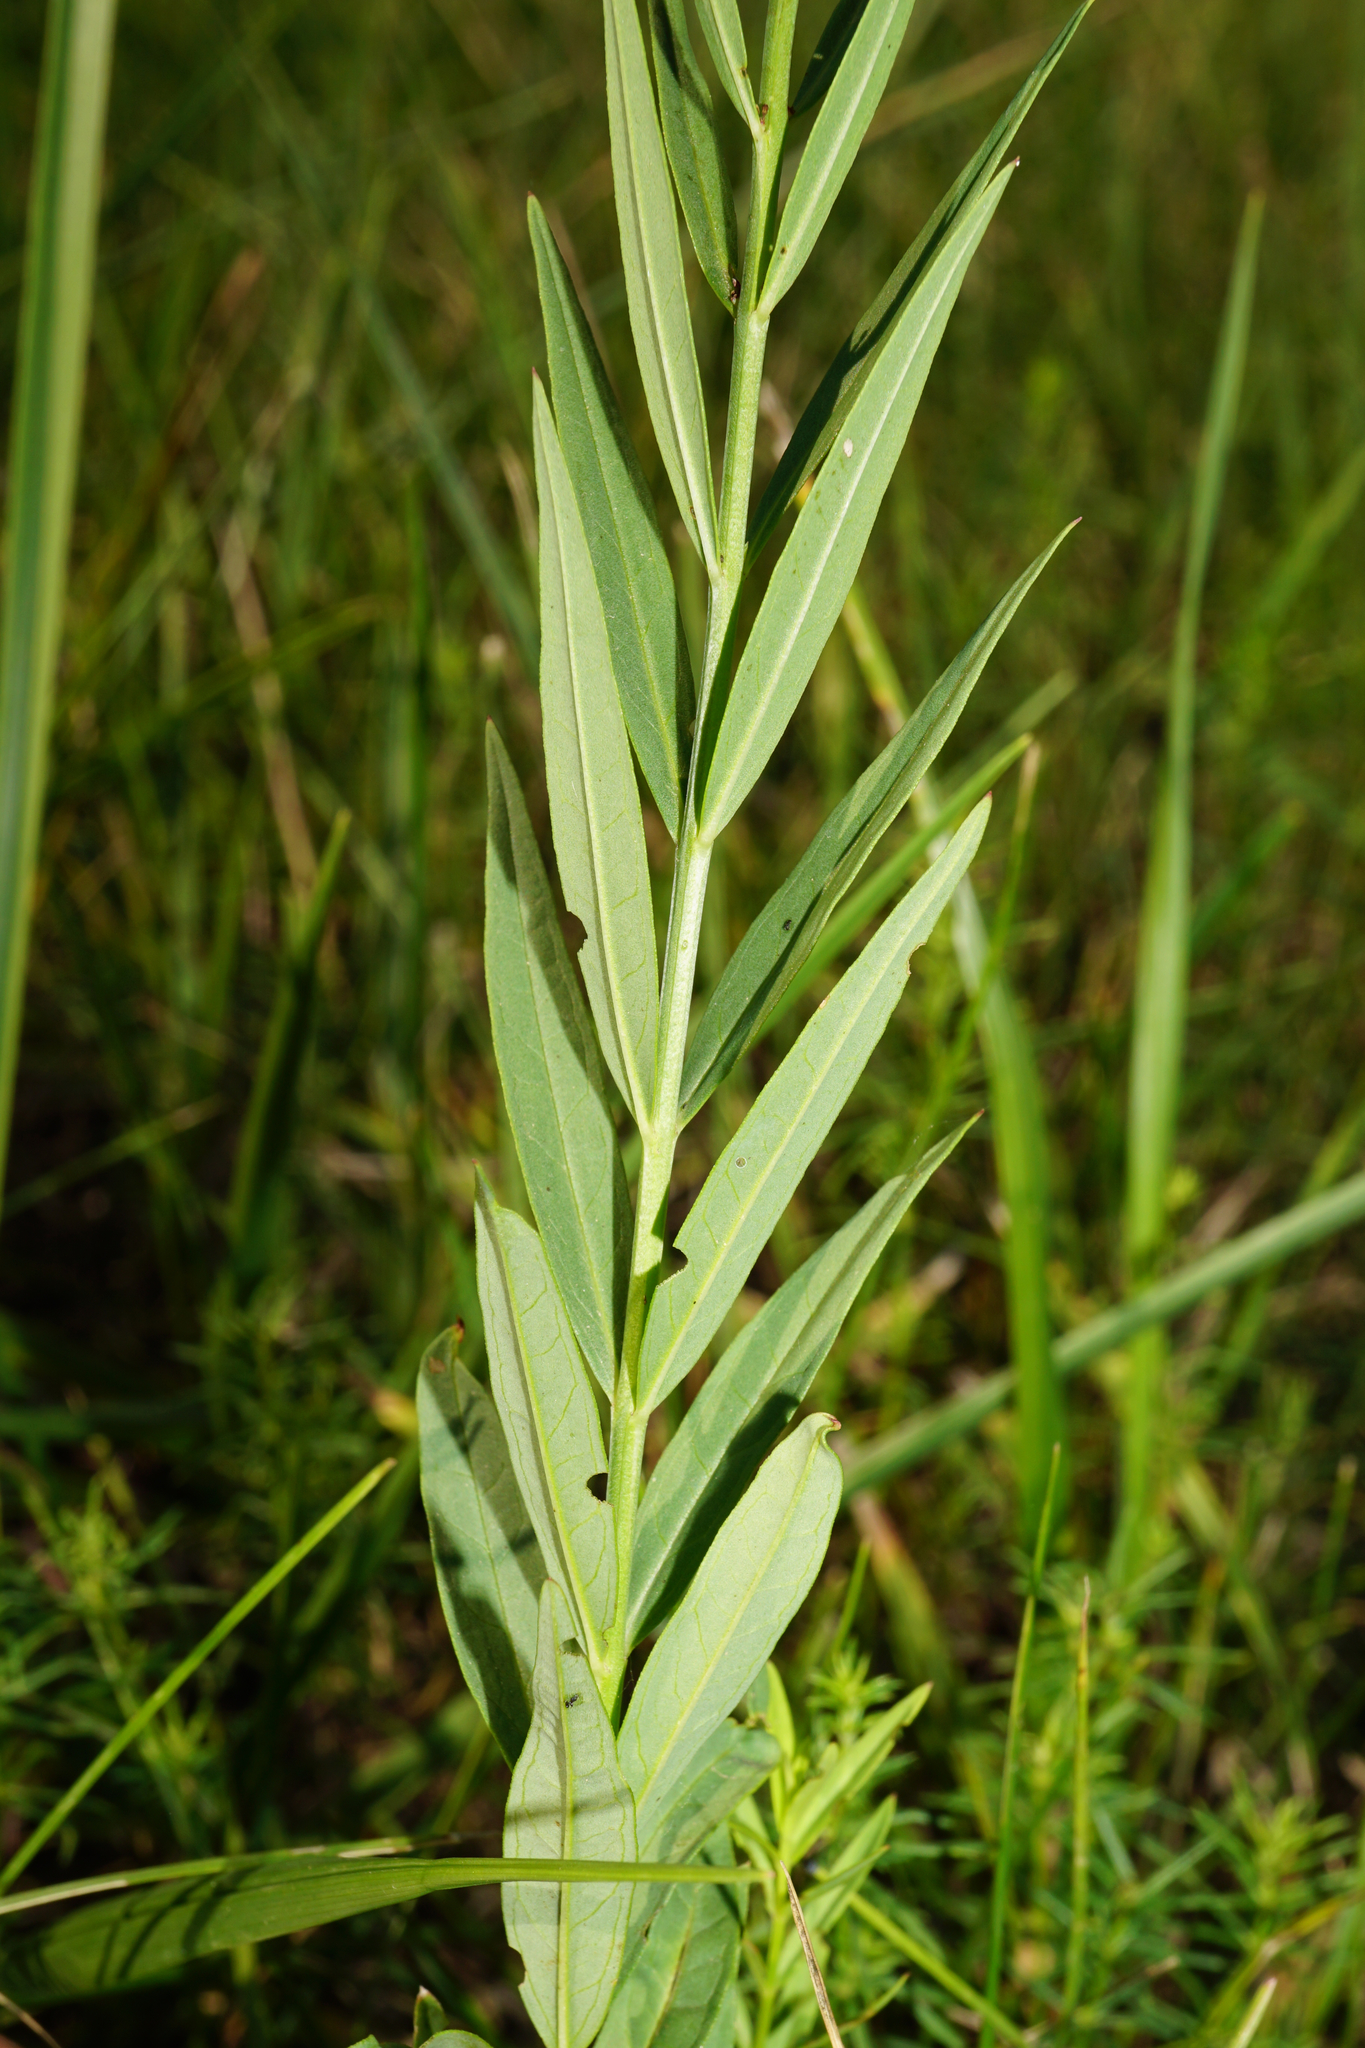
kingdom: Plantae
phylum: Tracheophyta
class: Magnoliopsida
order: Myrtales
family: Lythraceae
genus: Lythrum
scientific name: Lythrum virgatum
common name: European wand loosestrife
